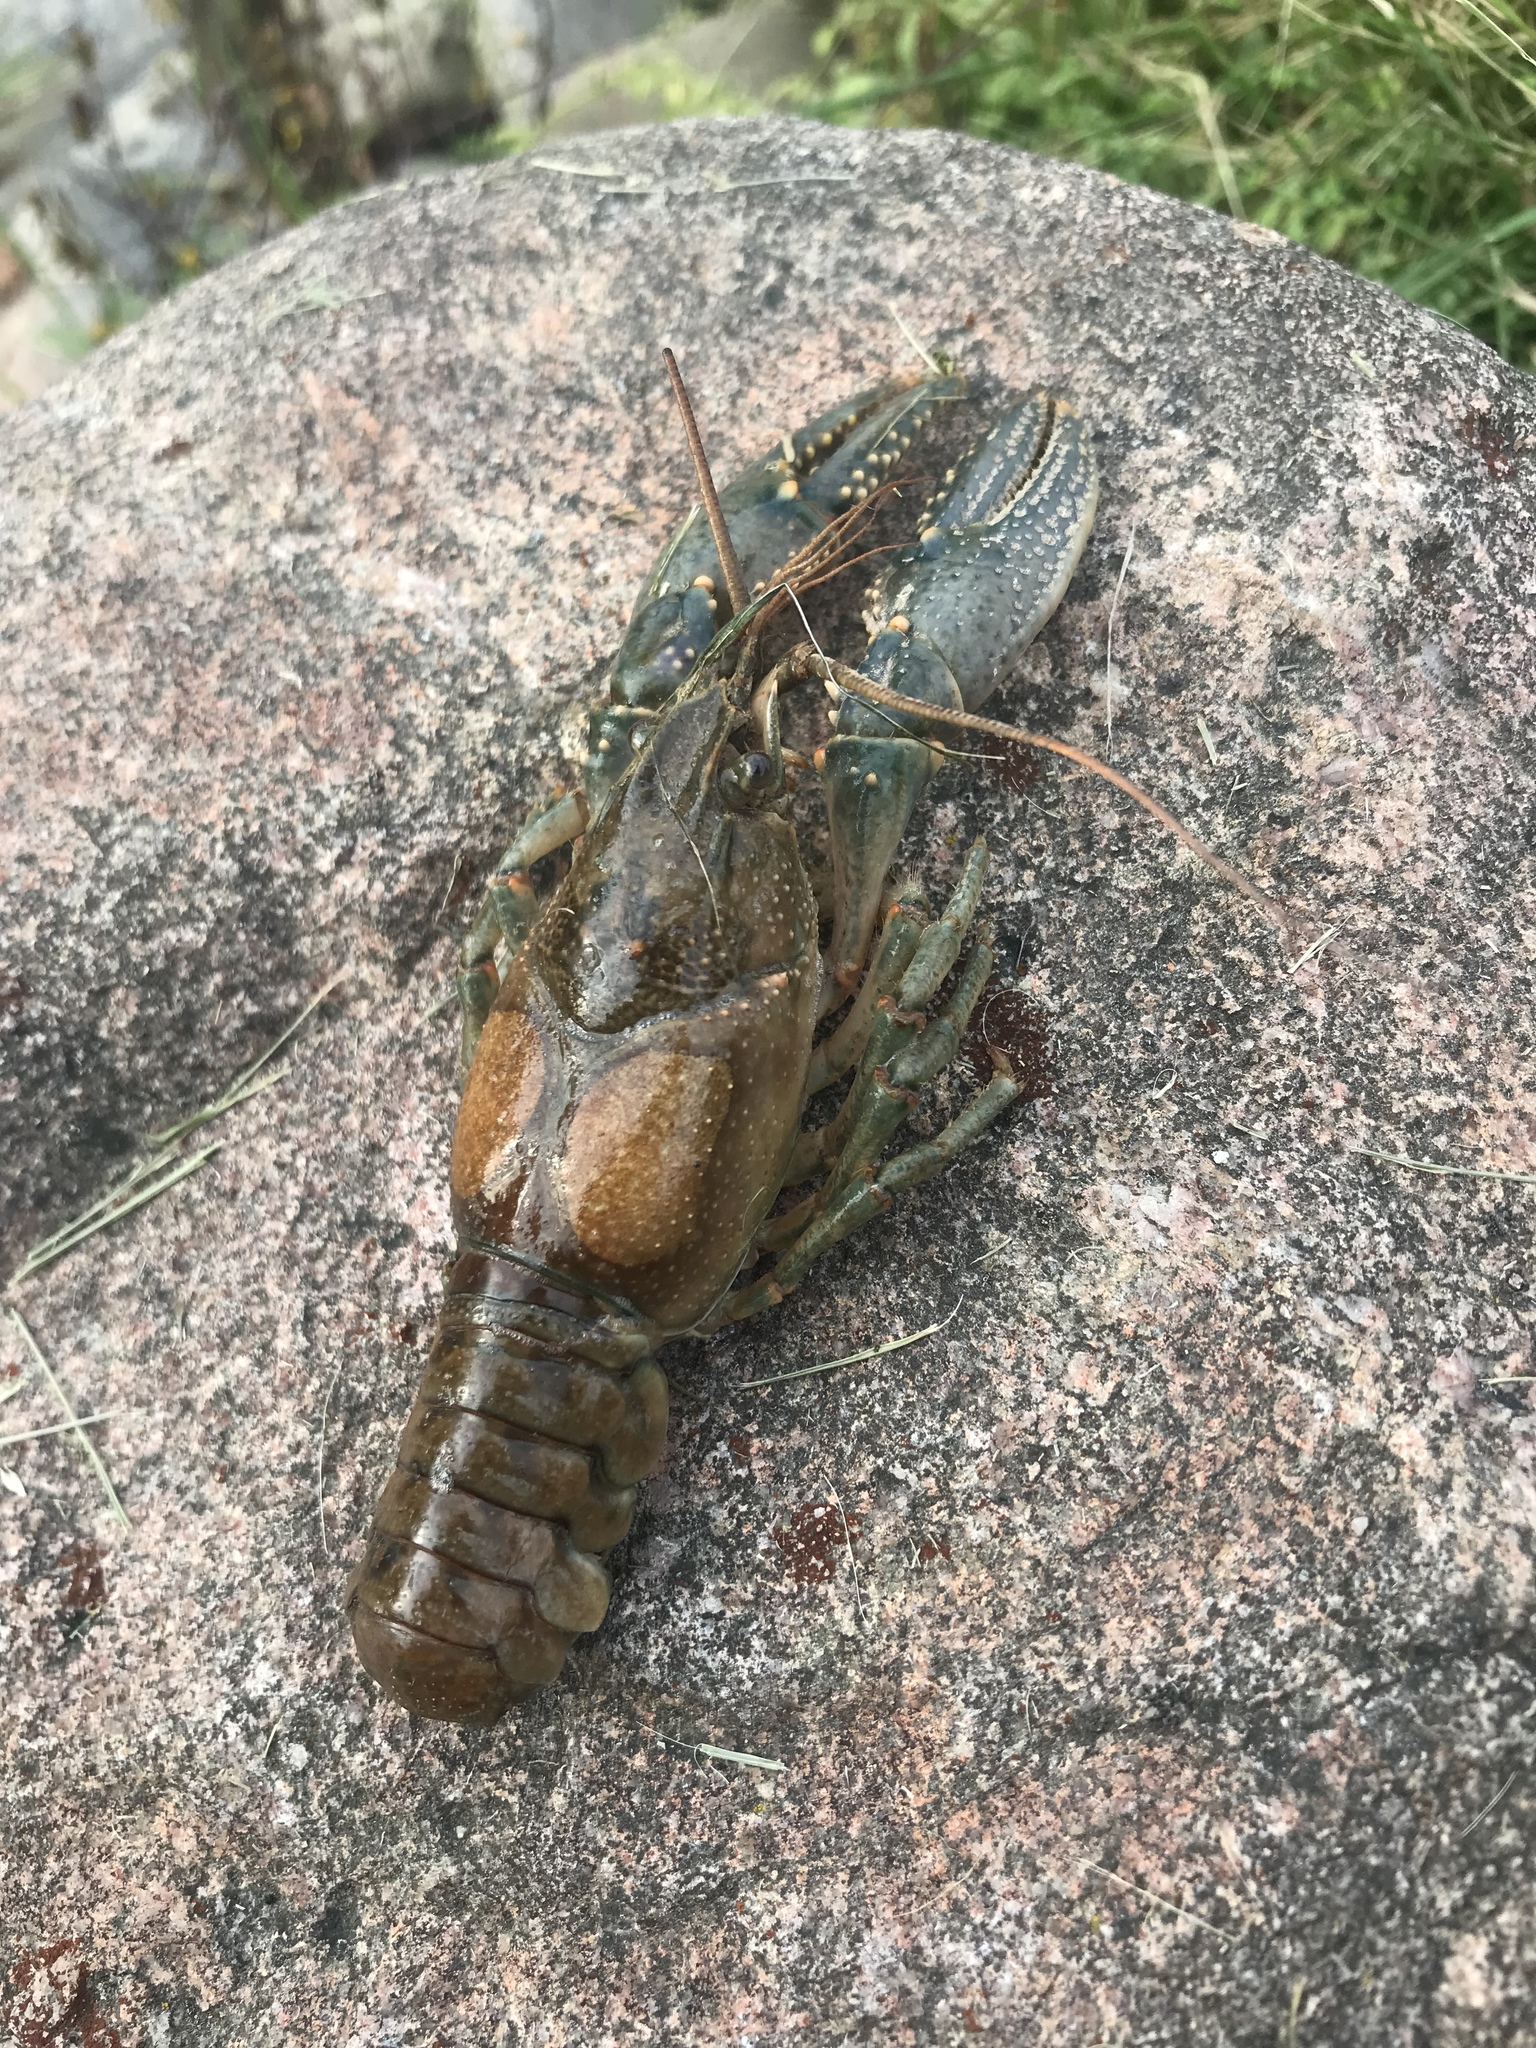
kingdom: Animalia
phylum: Arthropoda
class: Malacostraca
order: Decapoda
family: Cambaridae
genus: Faxonius
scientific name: Faxonius virilis
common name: Virile crayfish
